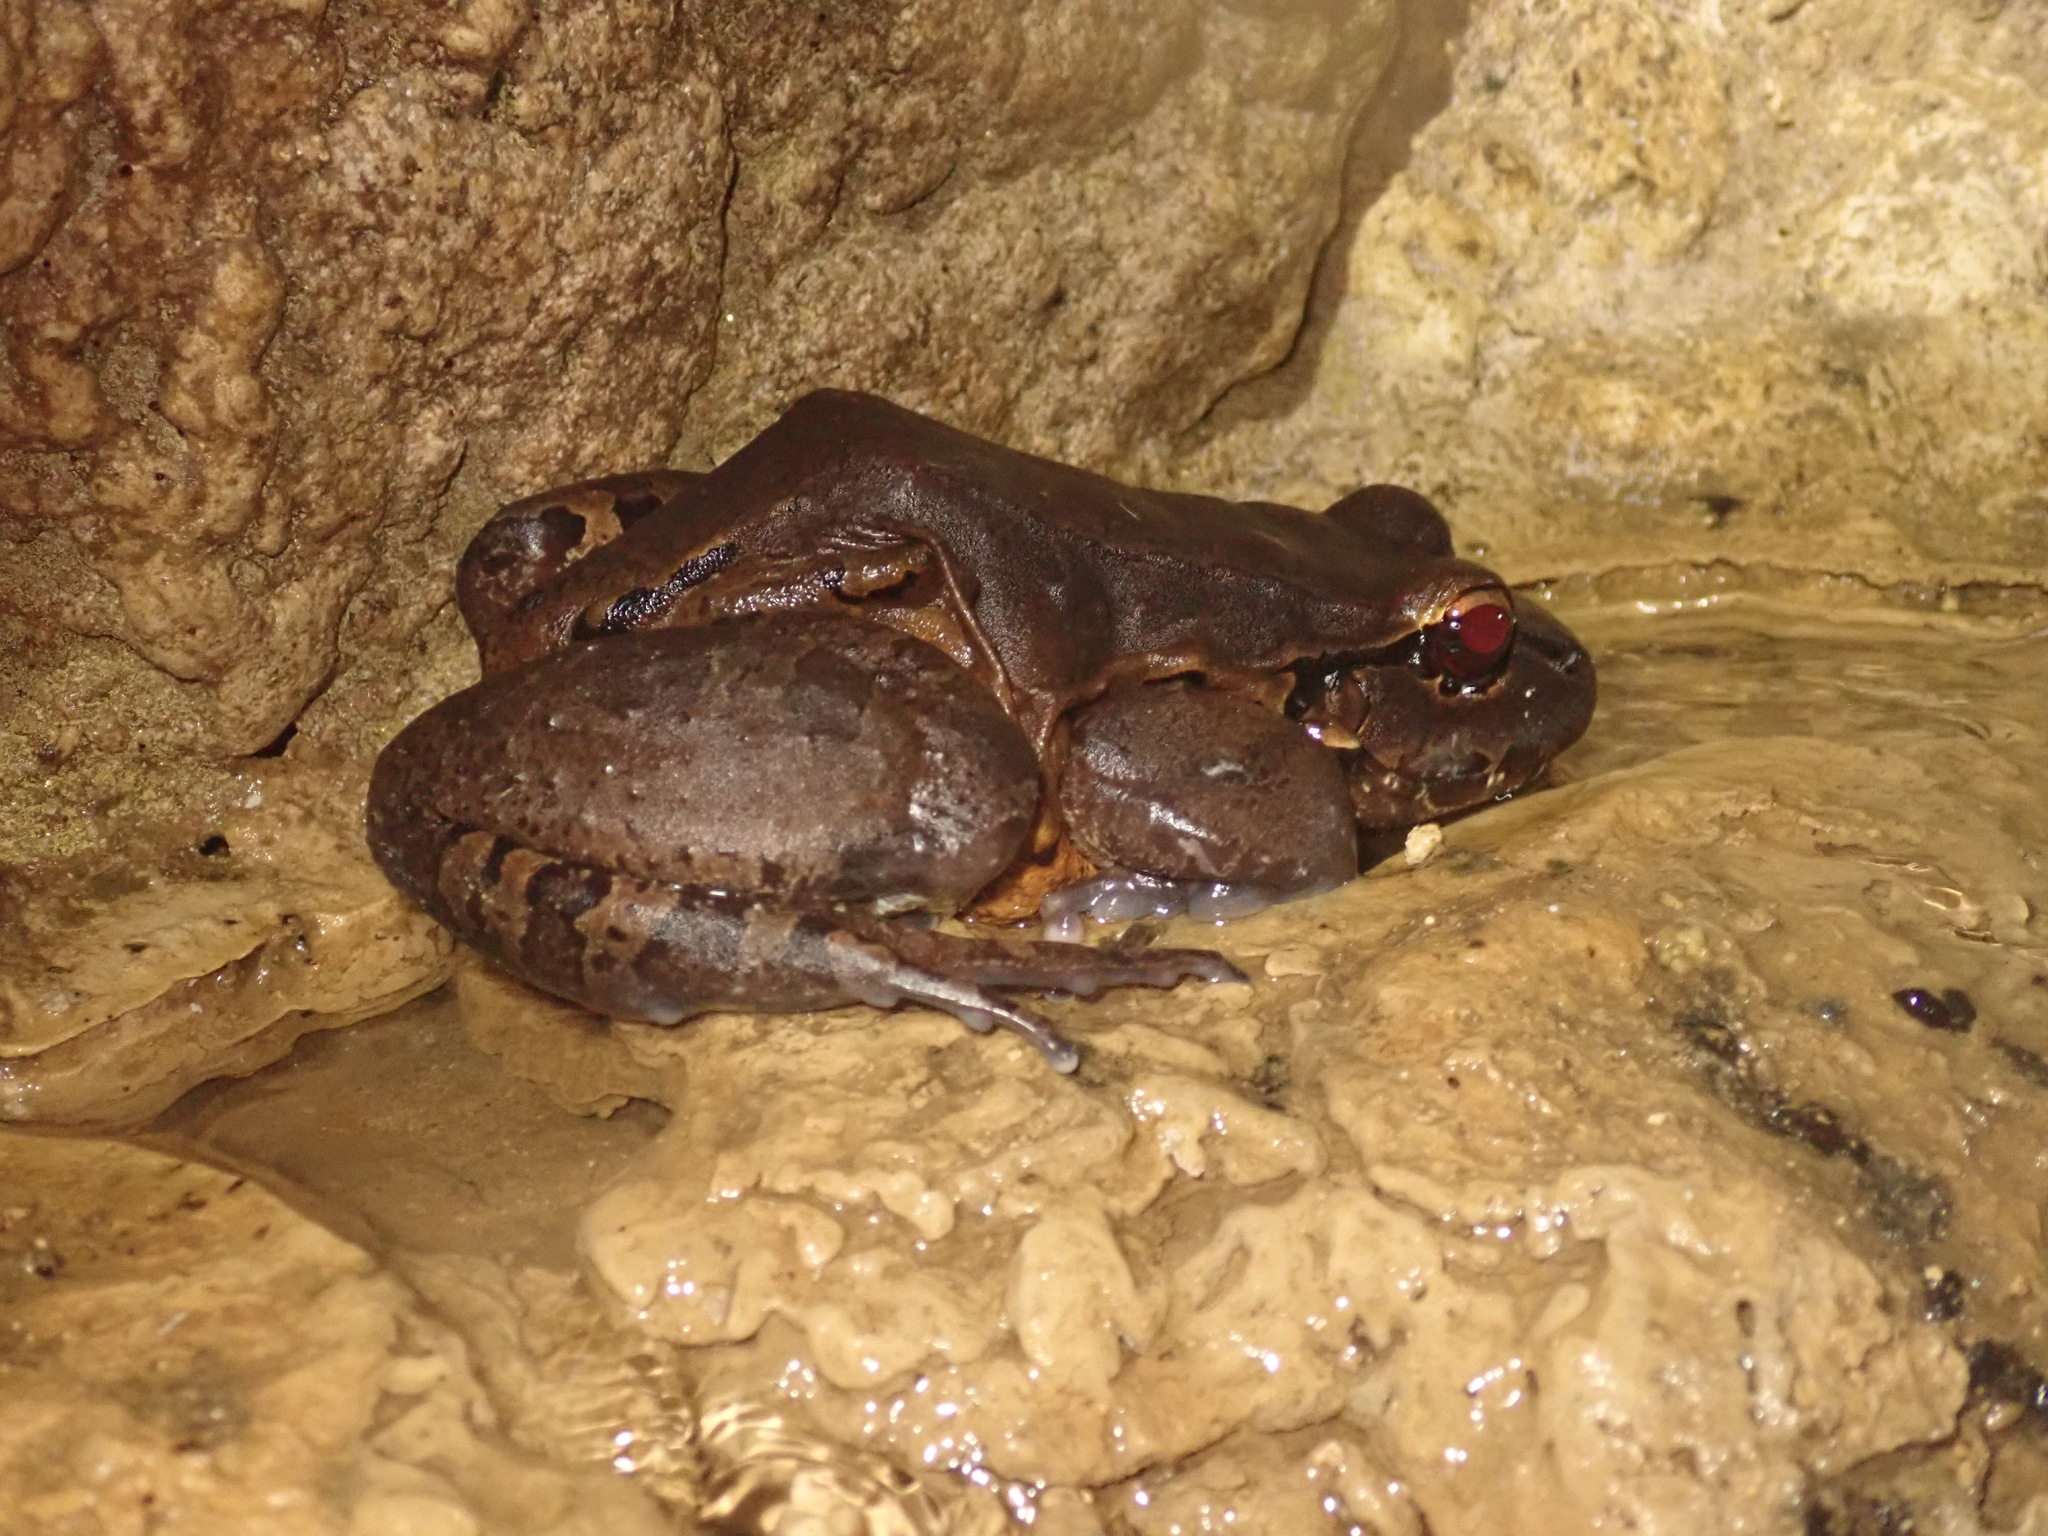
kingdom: Animalia
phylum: Chordata
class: Amphibia
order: Anura
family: Leptodactylidae
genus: Leptodactylus
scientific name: Leptodactylus savagei
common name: Savage's thin-toed frog
